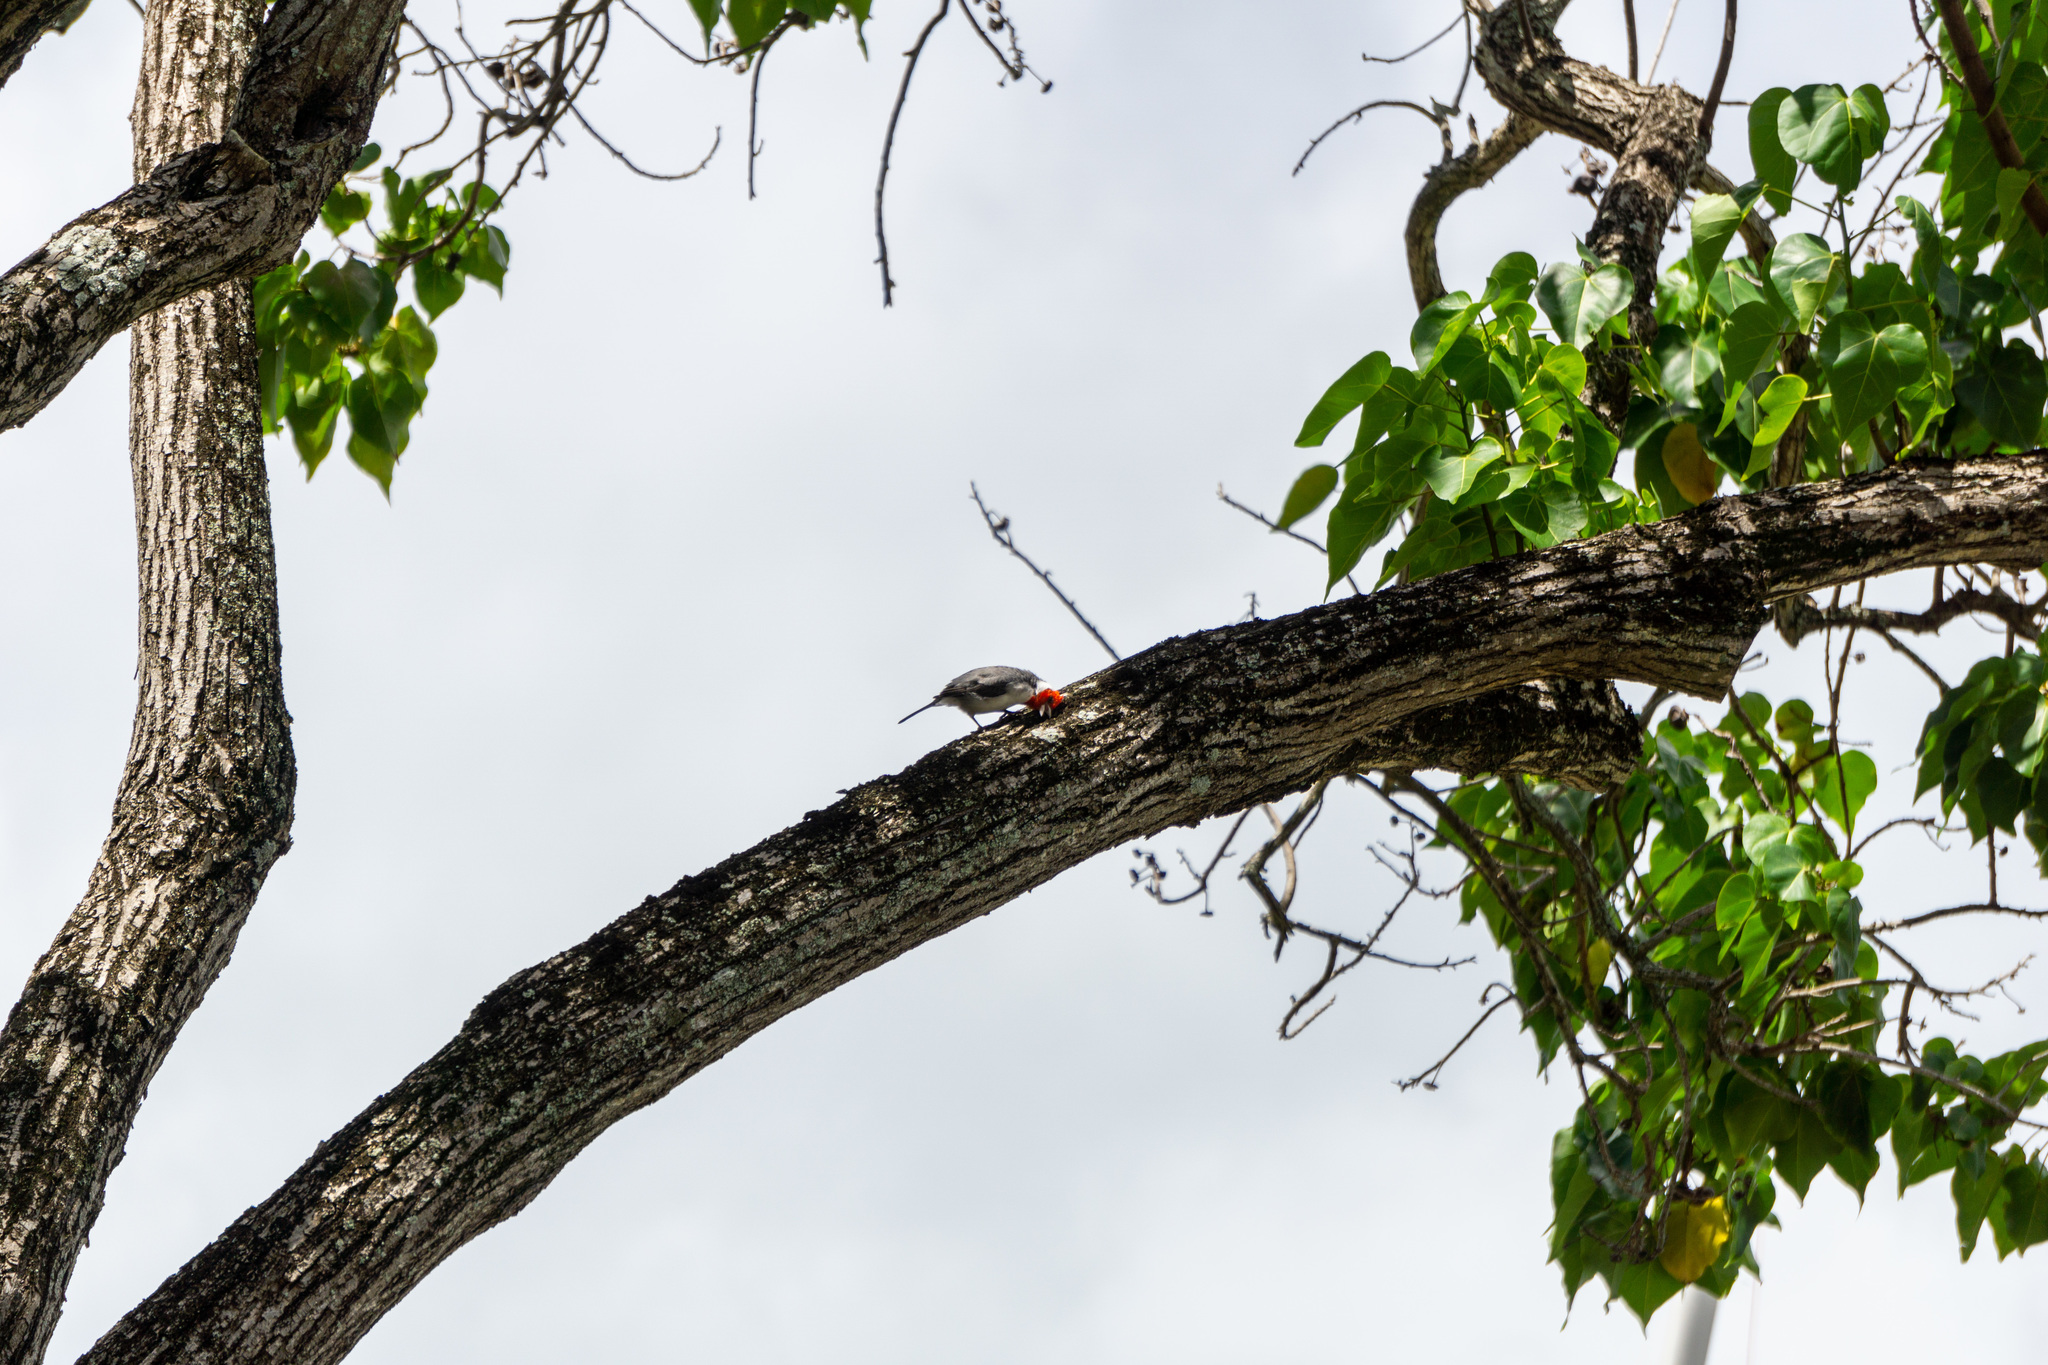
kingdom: Animalia
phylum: Chordata
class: Aves
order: Passeriformes
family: Thraupidae
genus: Paroaria
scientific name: Paroaria coronata
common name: Red-crested cardinal
